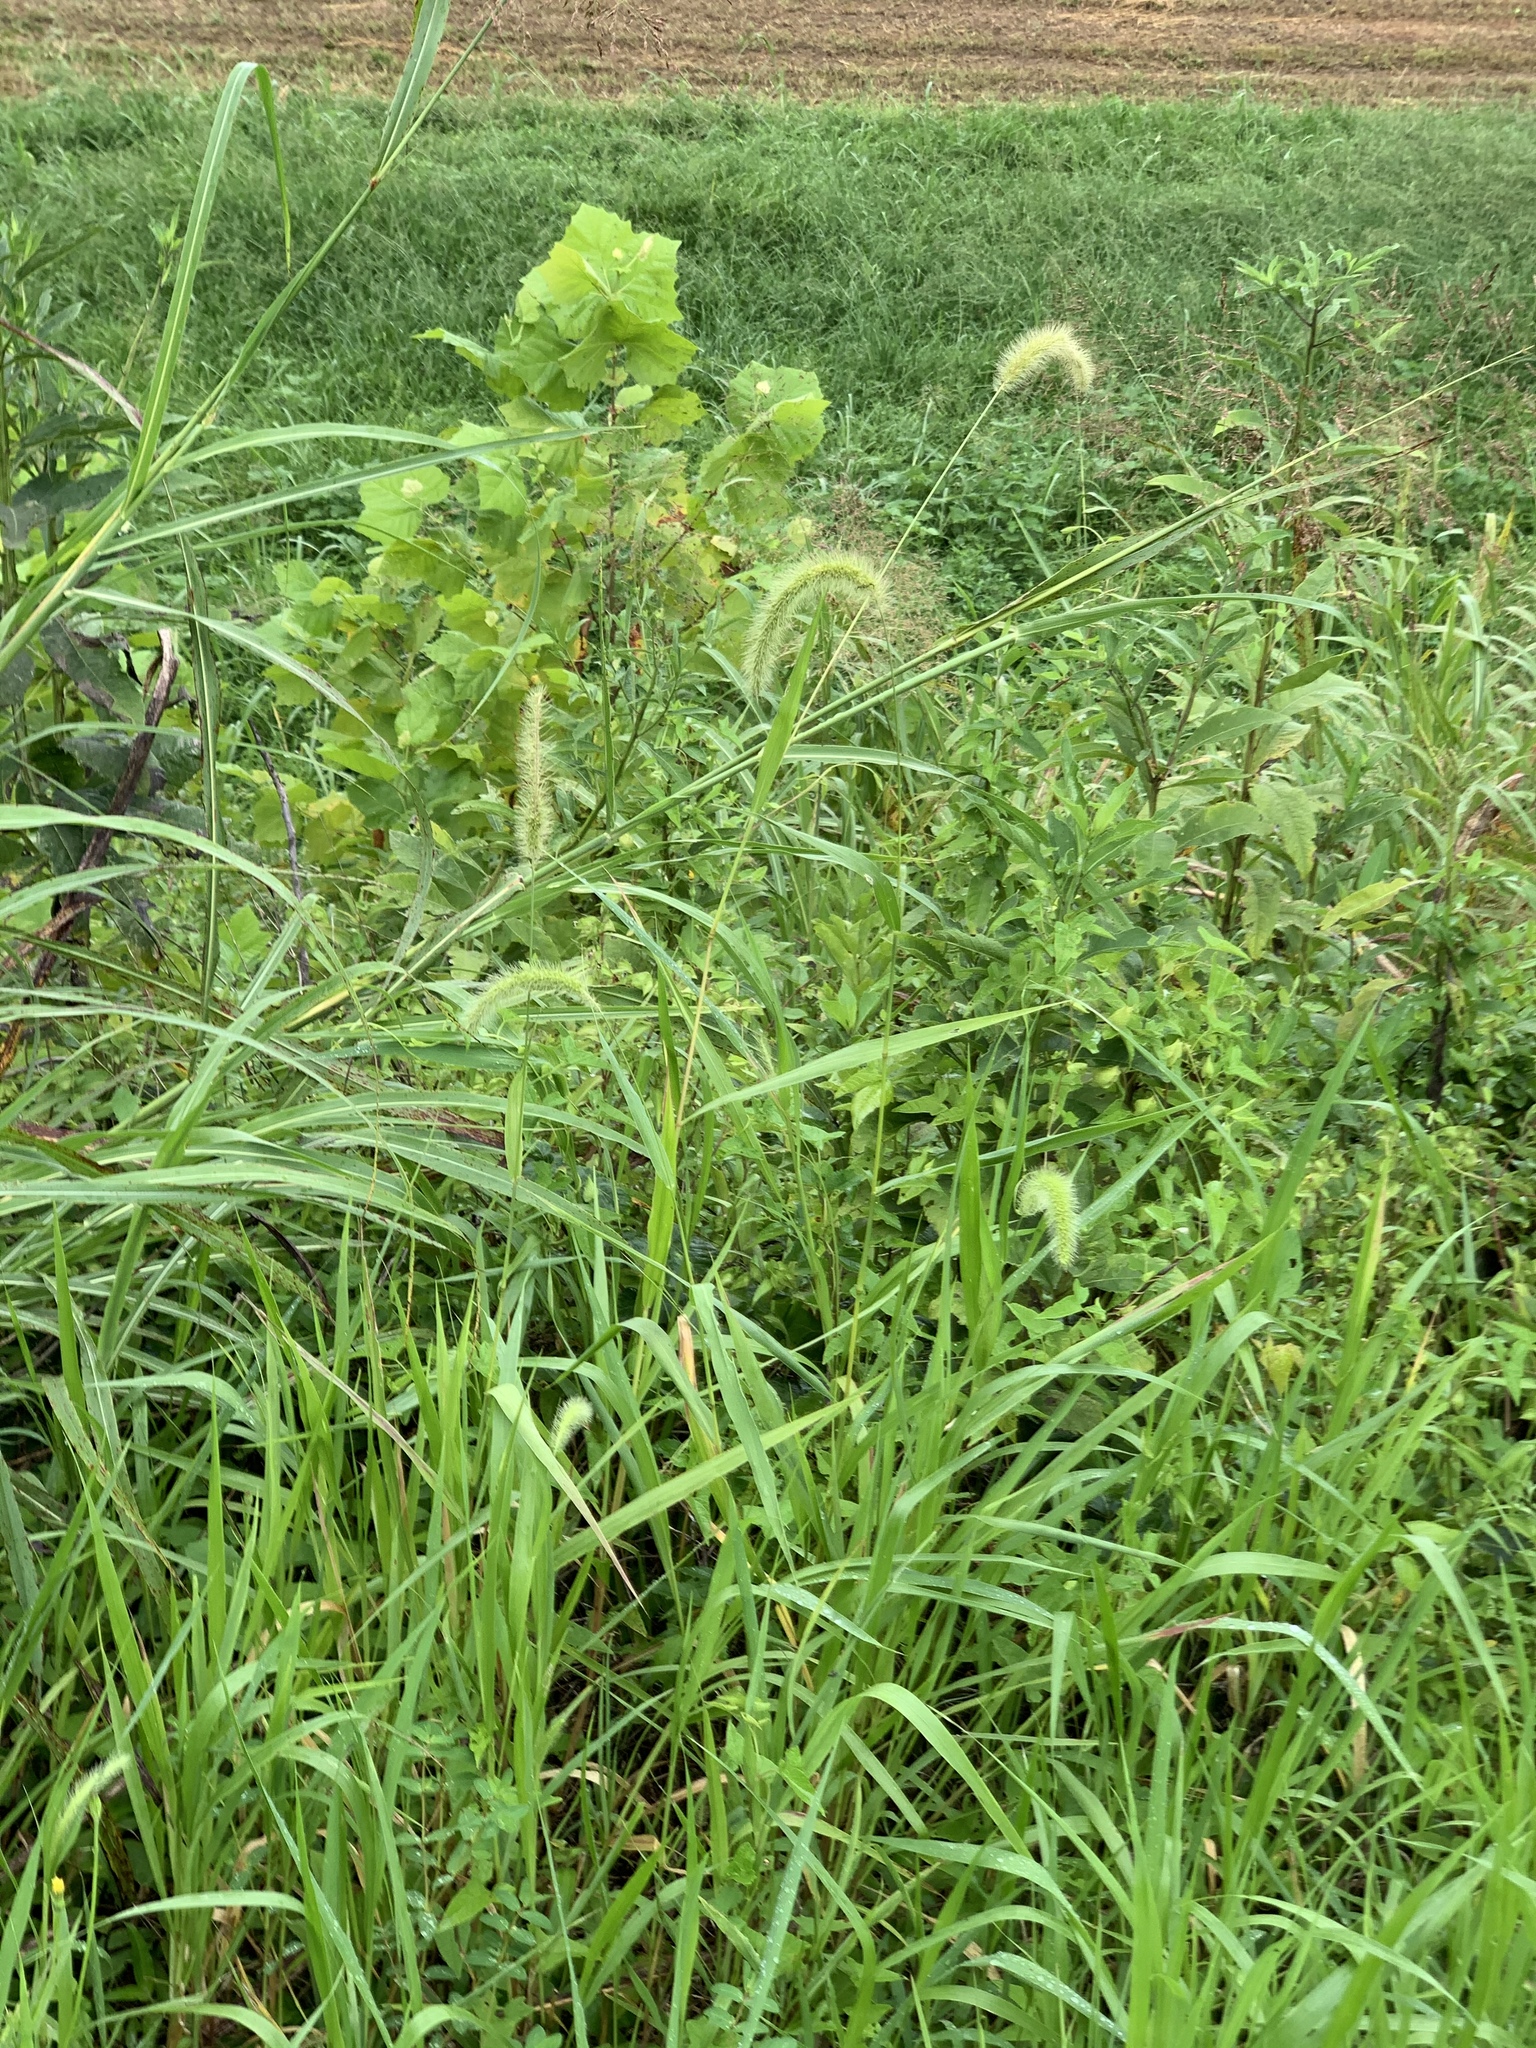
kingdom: Plantae
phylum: Tracheophyta
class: Liliopsida
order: Poales
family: Poaceae
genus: Setaria
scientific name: Setaria faberi
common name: Nodding bristle-grass
